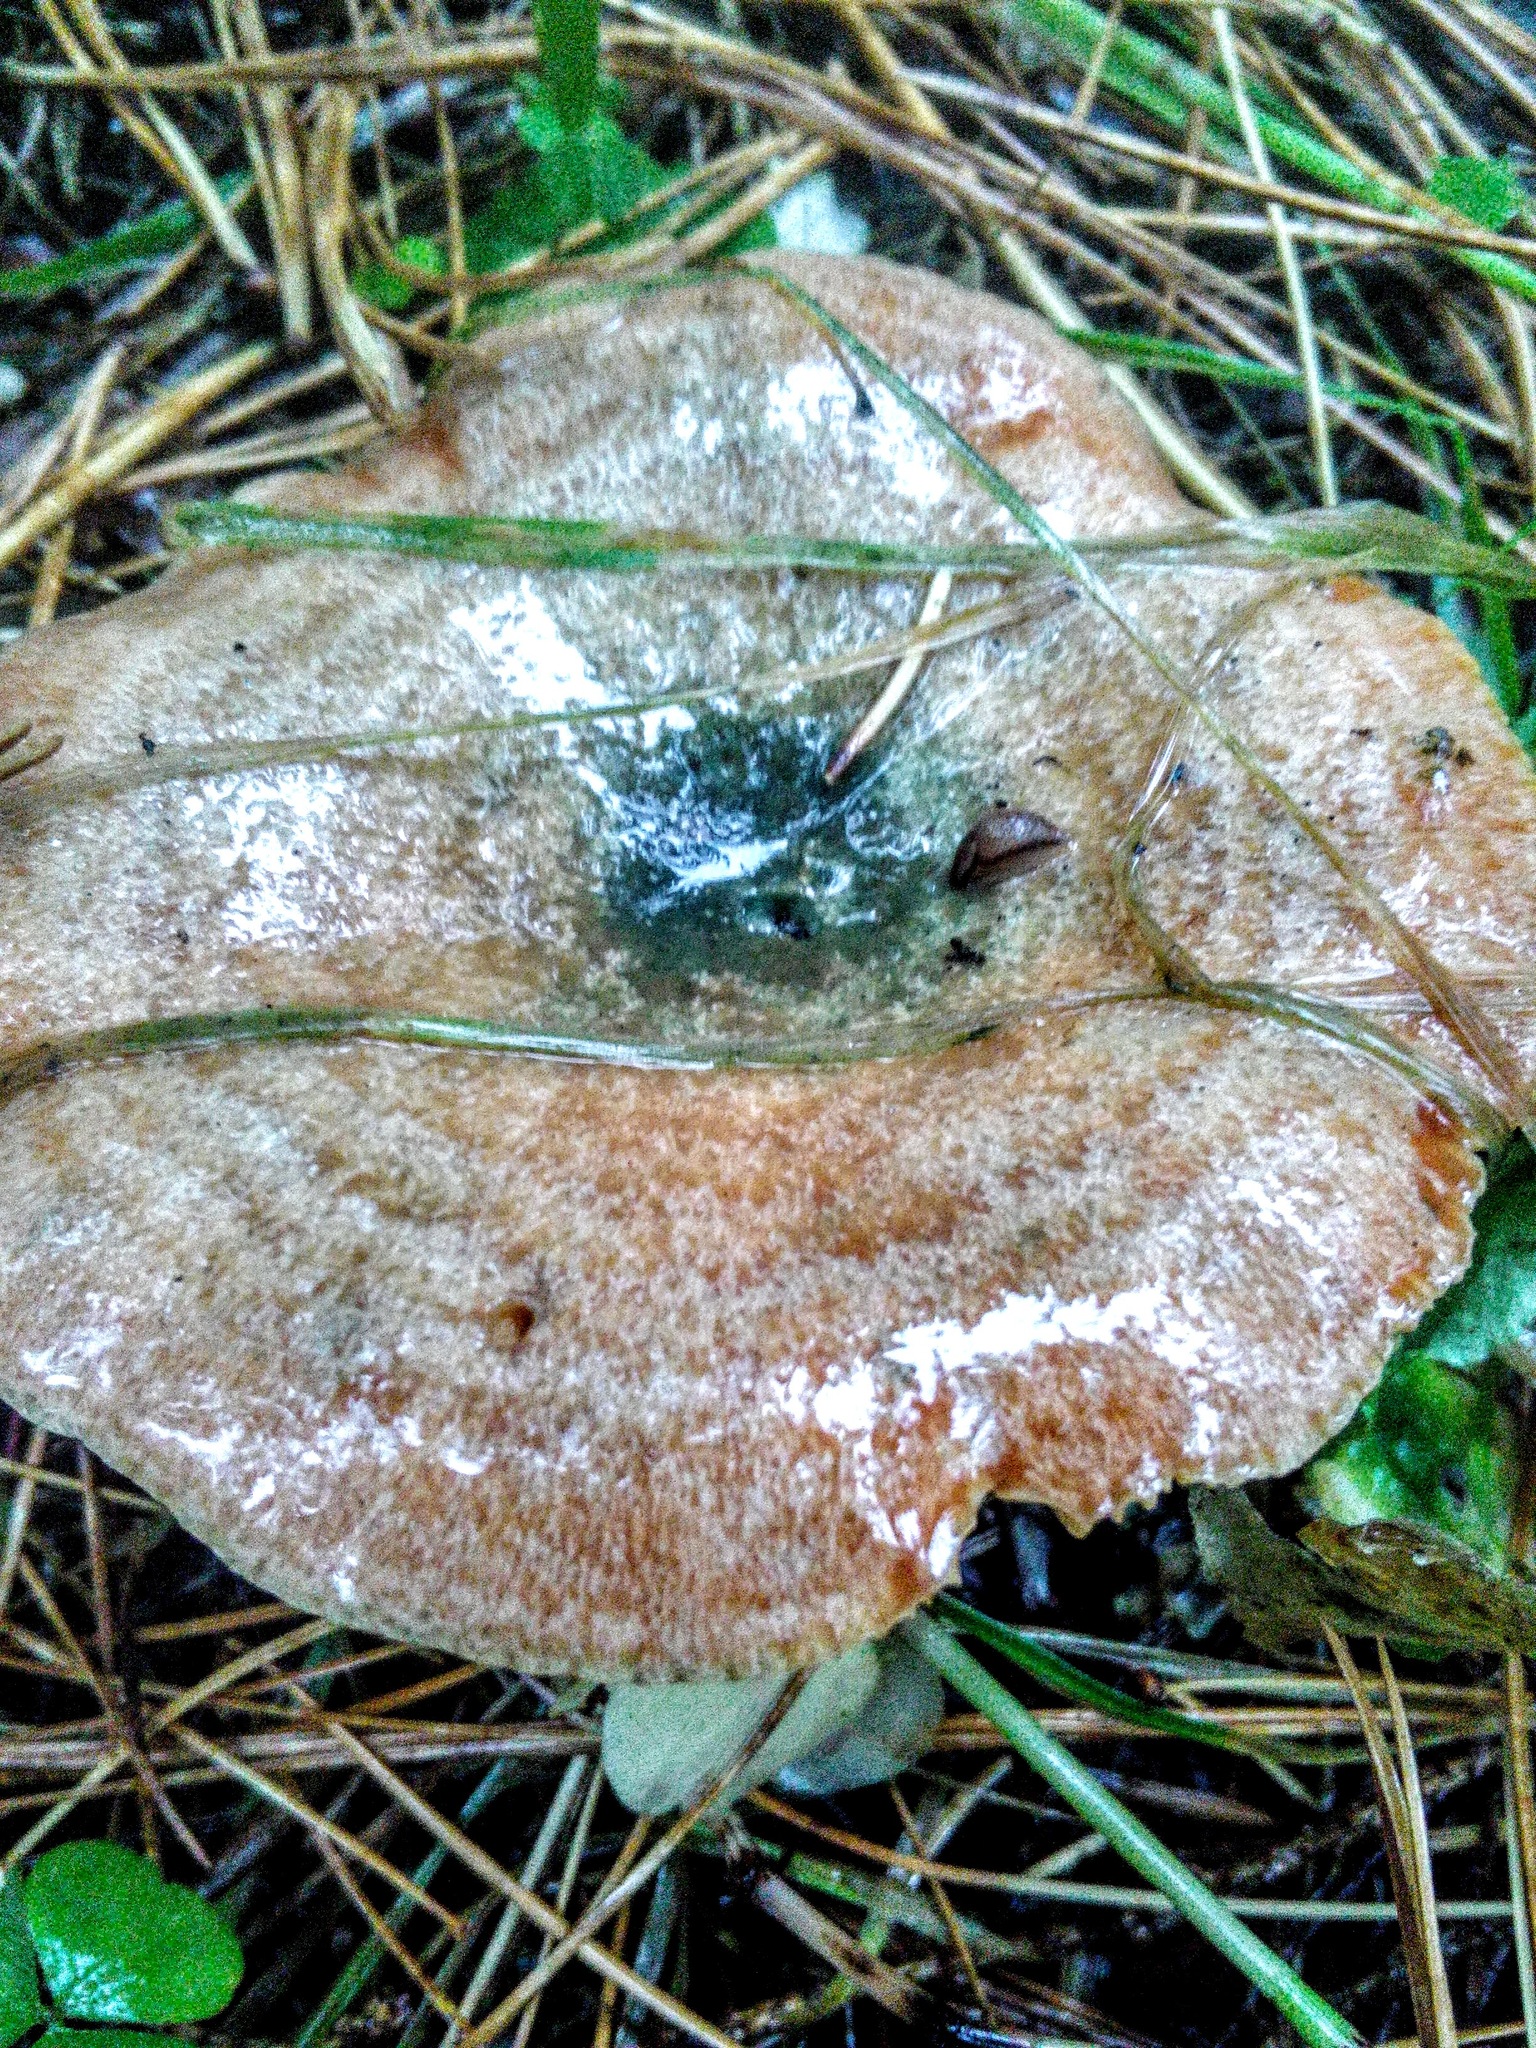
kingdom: Fungi
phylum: Basidiomycota
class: Agaricomycetes
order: Russulales
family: Russulaceae
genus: Lactarius
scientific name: Lactarius deterrimus
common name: False saffron milkcap
